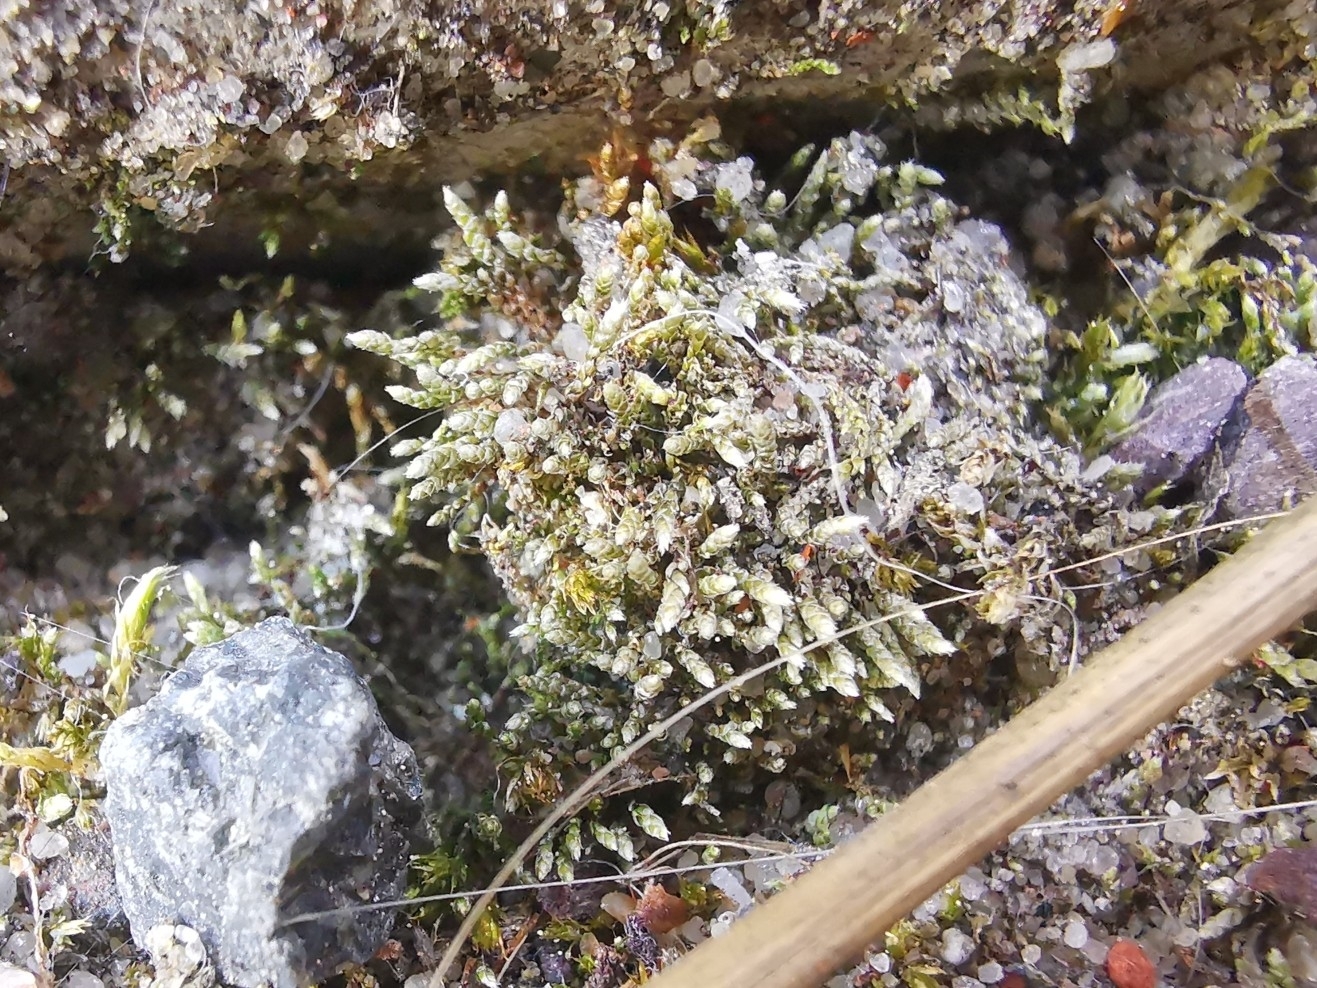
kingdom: Plantae
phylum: Bryophyta
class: Bryopsida
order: Bryales
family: Bryaceae
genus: Bryum
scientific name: Bryum argenteum
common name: Silver-moss
